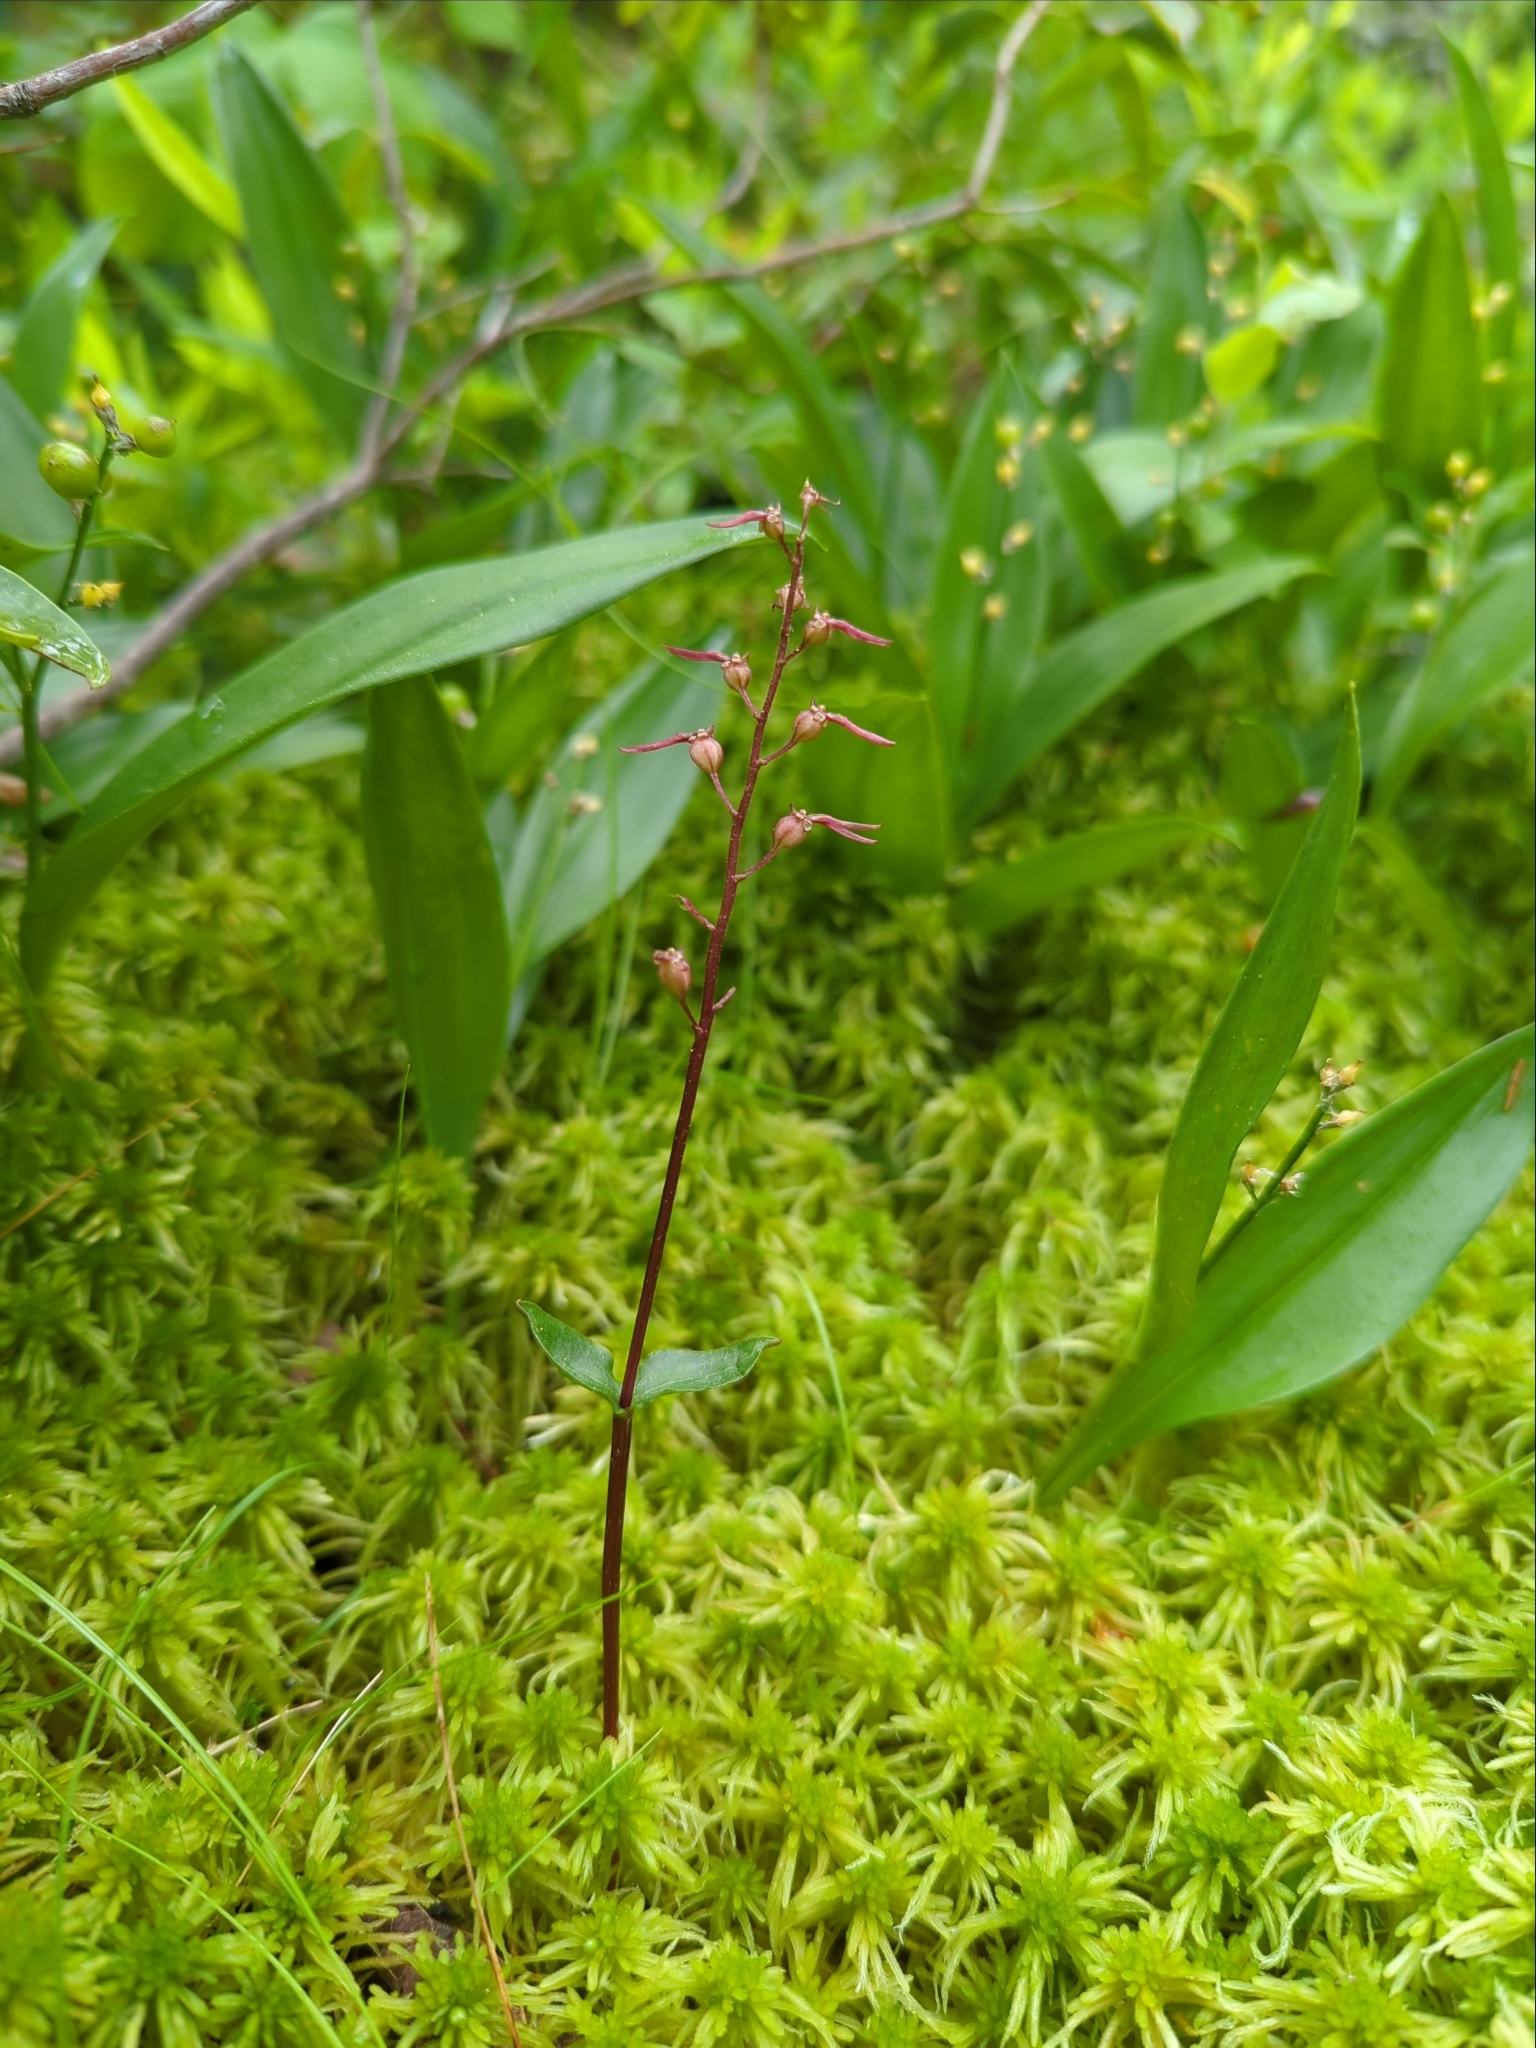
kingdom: Plantae
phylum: Tracheophyta
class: Liliopsida
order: Asparagales
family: Orchidaceae
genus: Neottia
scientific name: Neottia bifolia
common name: Southern twayblade
